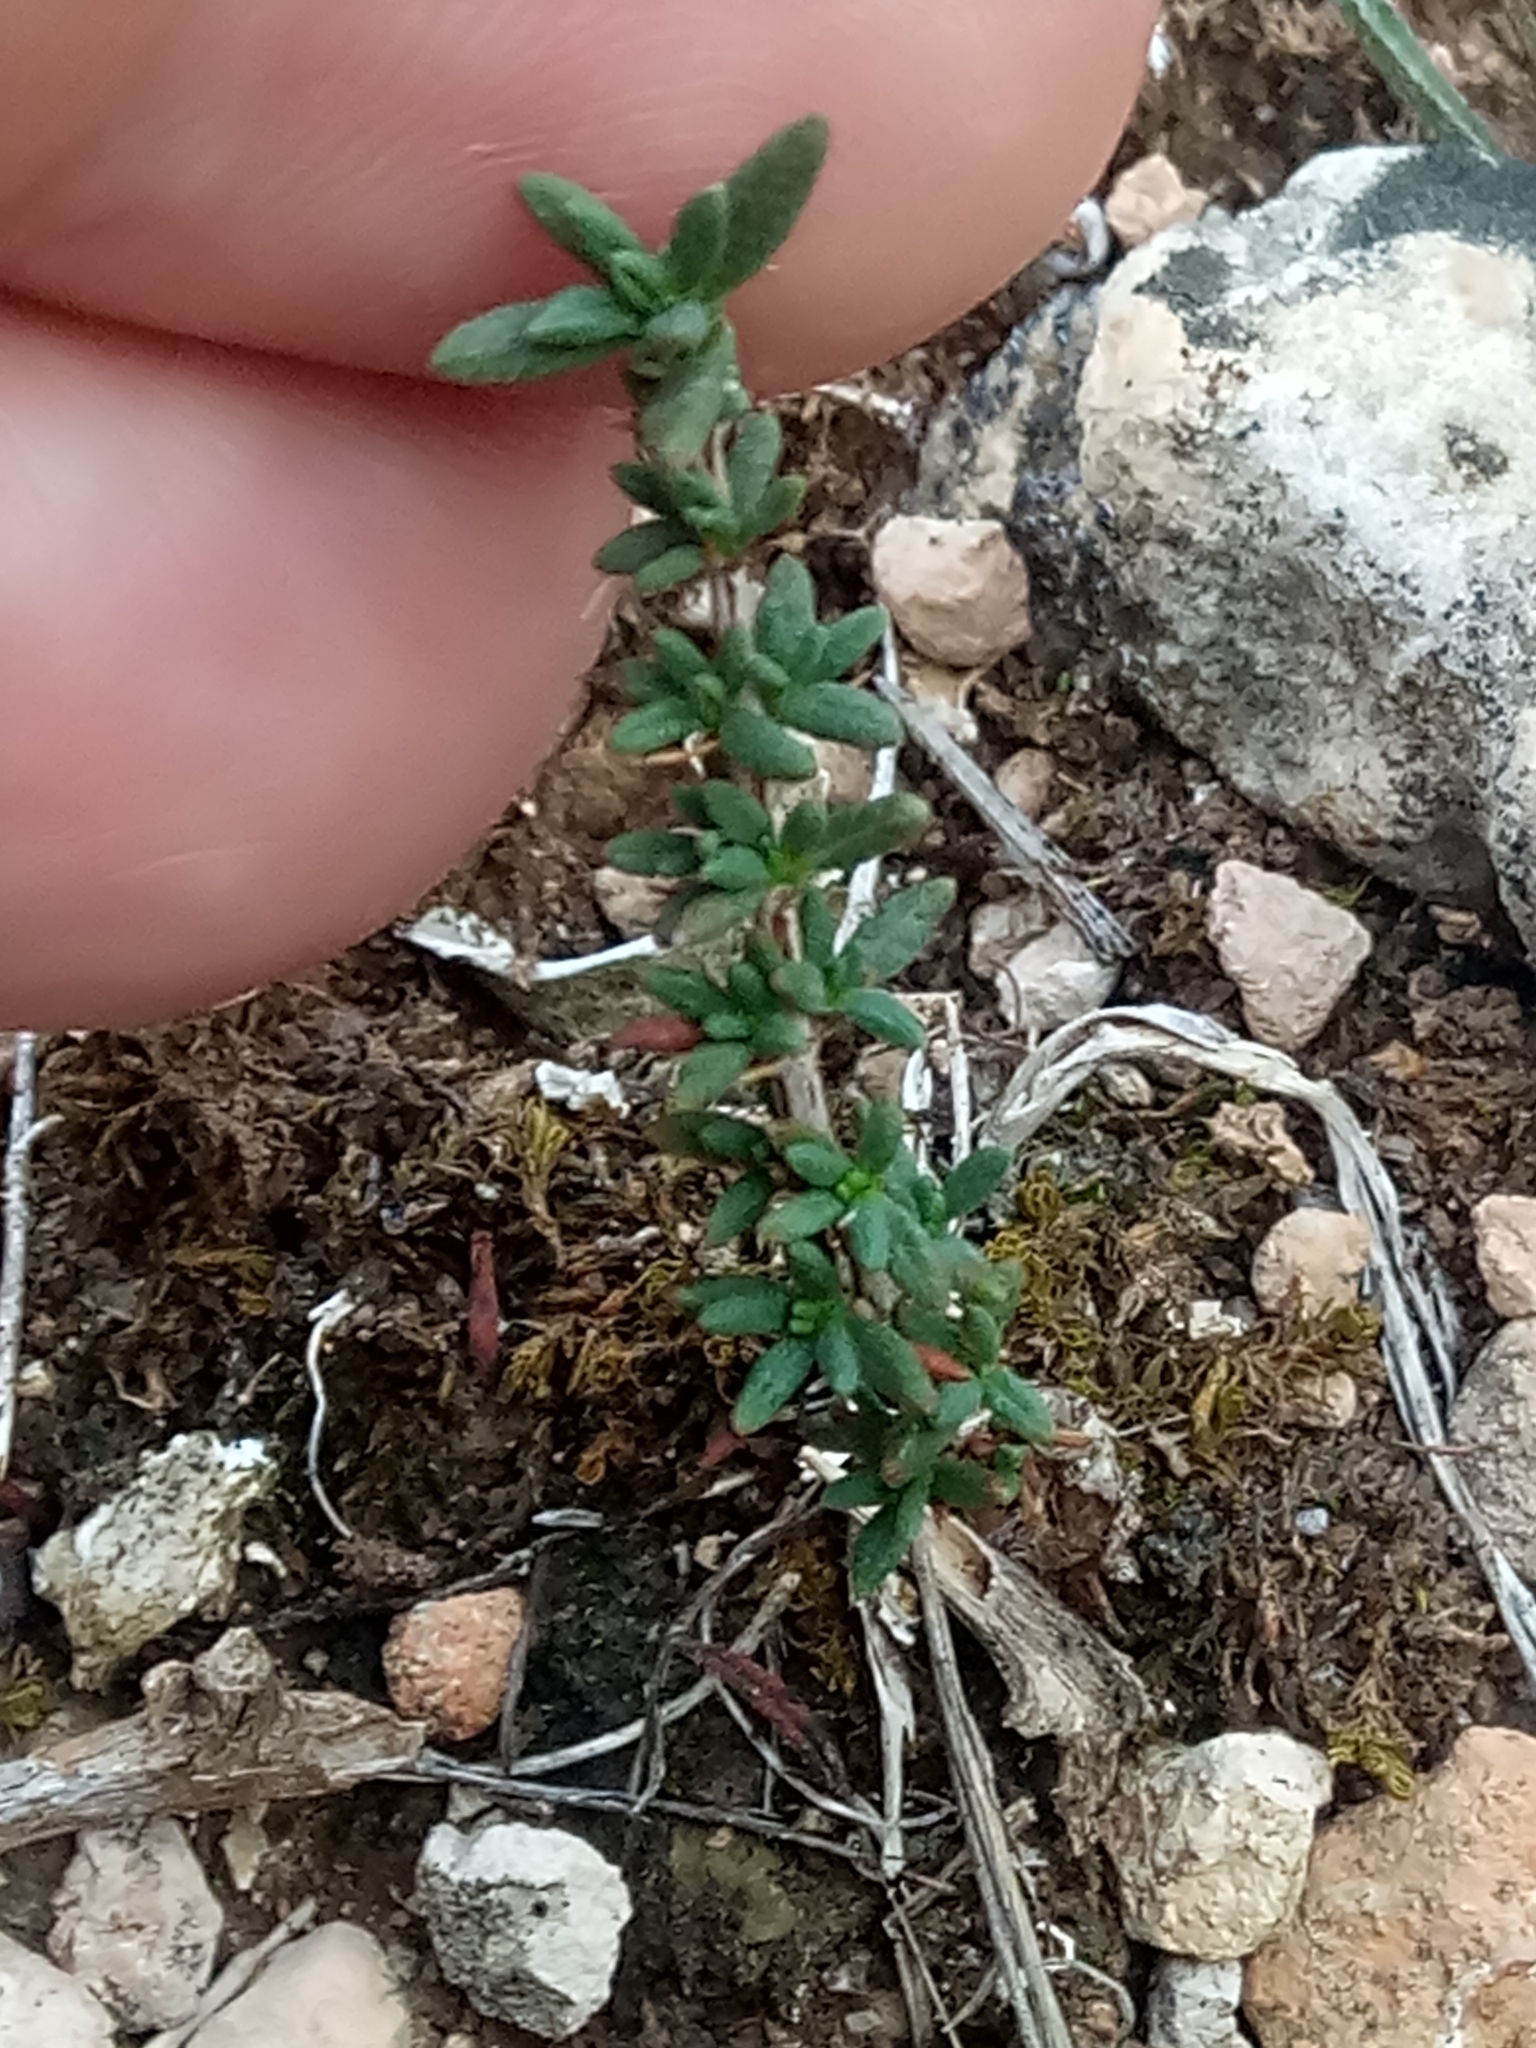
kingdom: Plantae
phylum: Tracheophyta
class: Magnoliopsida
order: Malvales
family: Cistaceae
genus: Fumana
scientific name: Fumana thymifolia
